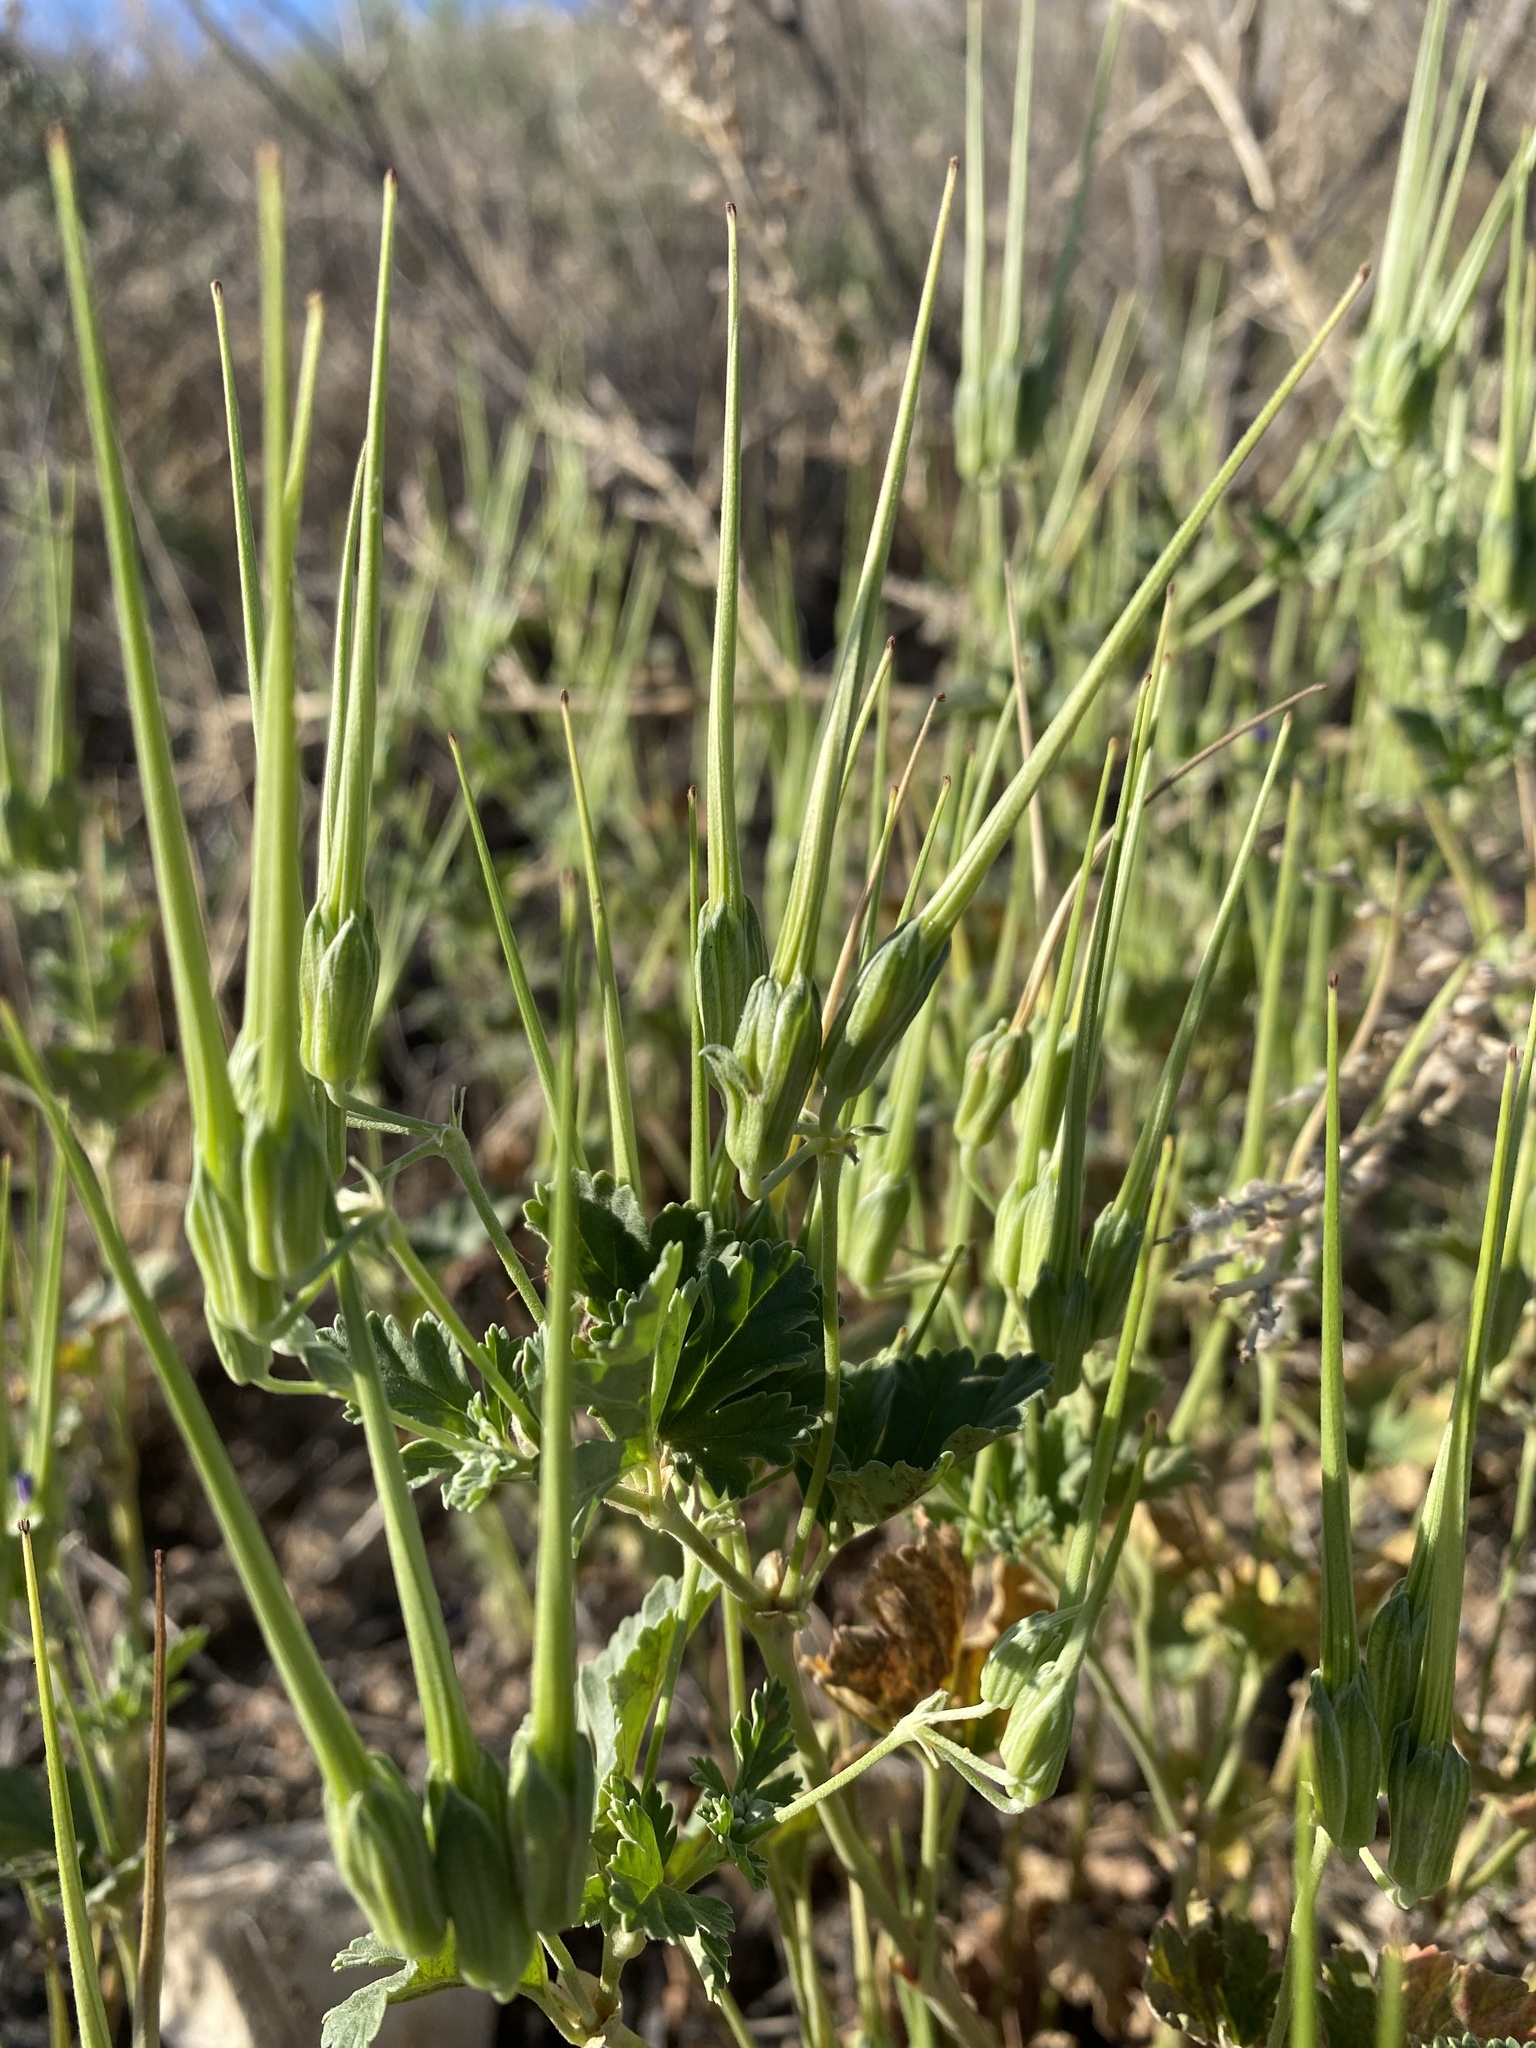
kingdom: Plantae
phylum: Tracheophyta
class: Magnoliopsida
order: Geraniales
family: Geraniaceae
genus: Erodium
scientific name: Erodium texanum
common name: Texas stork's-bill
